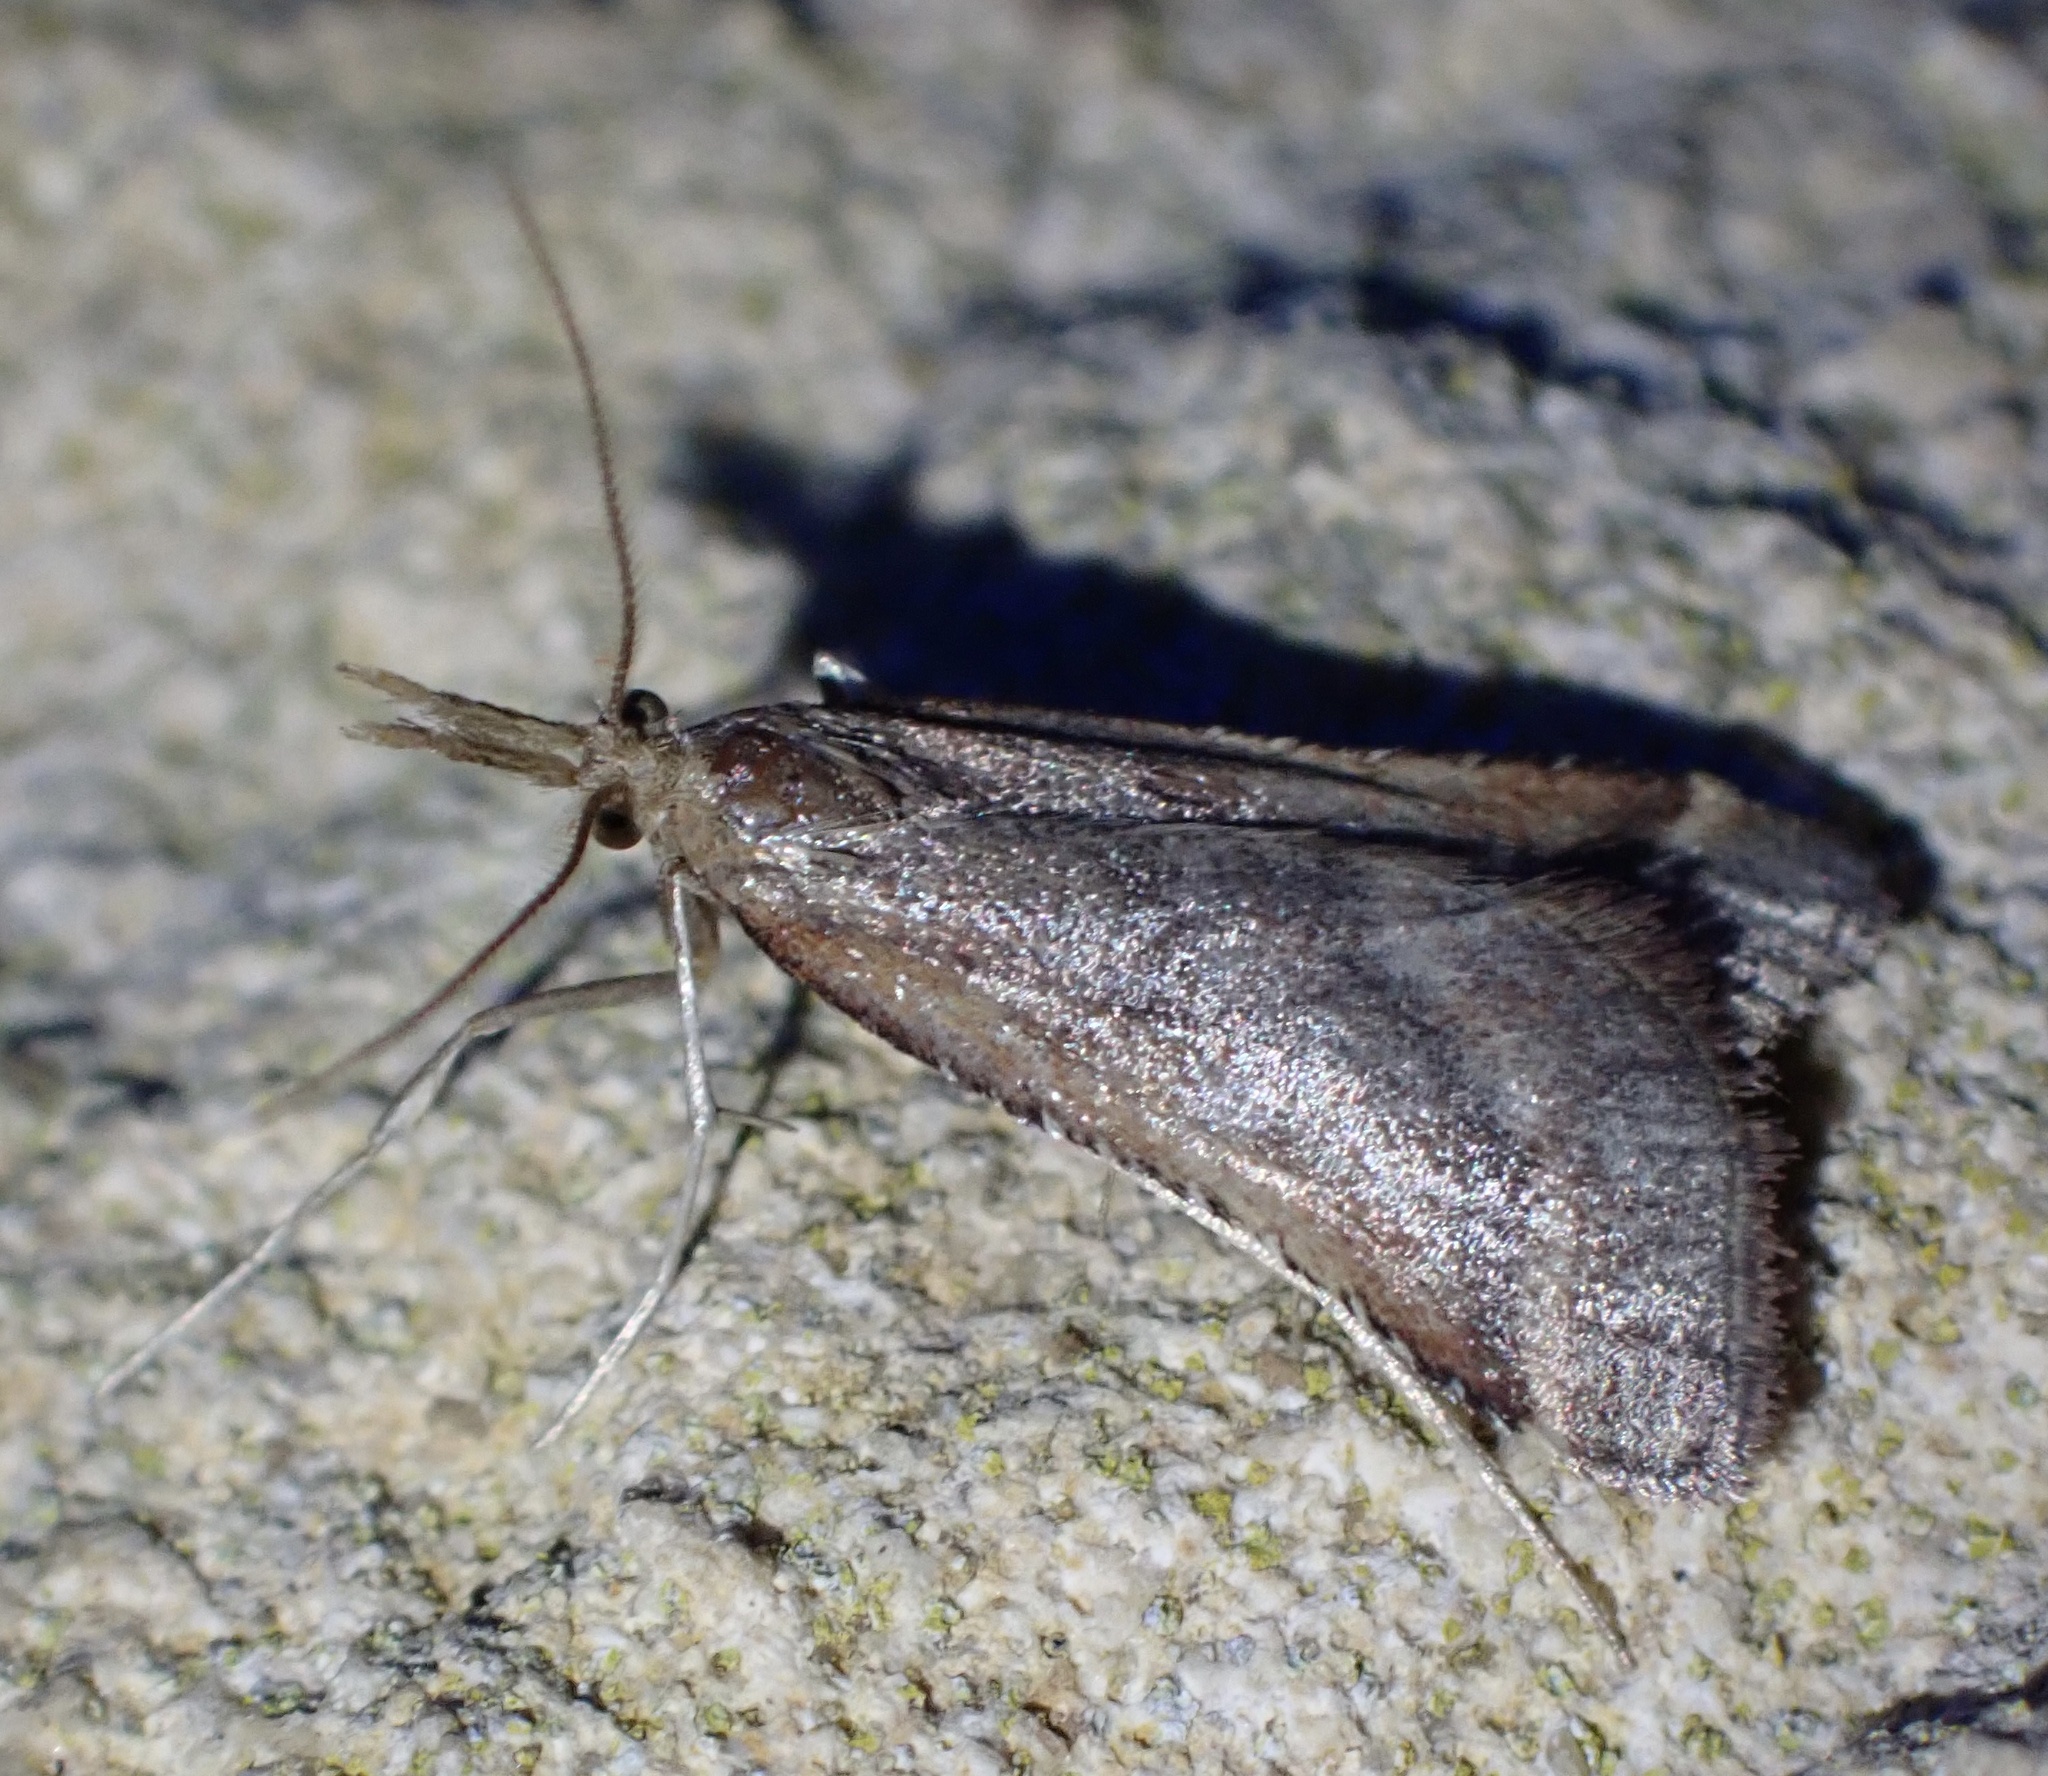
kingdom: Animalia
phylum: Arthropoda
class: Insecta
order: Lepidoptera
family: Pyralidae
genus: Synaphe
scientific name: Synaphe punctalis
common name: Long-legged tabby
